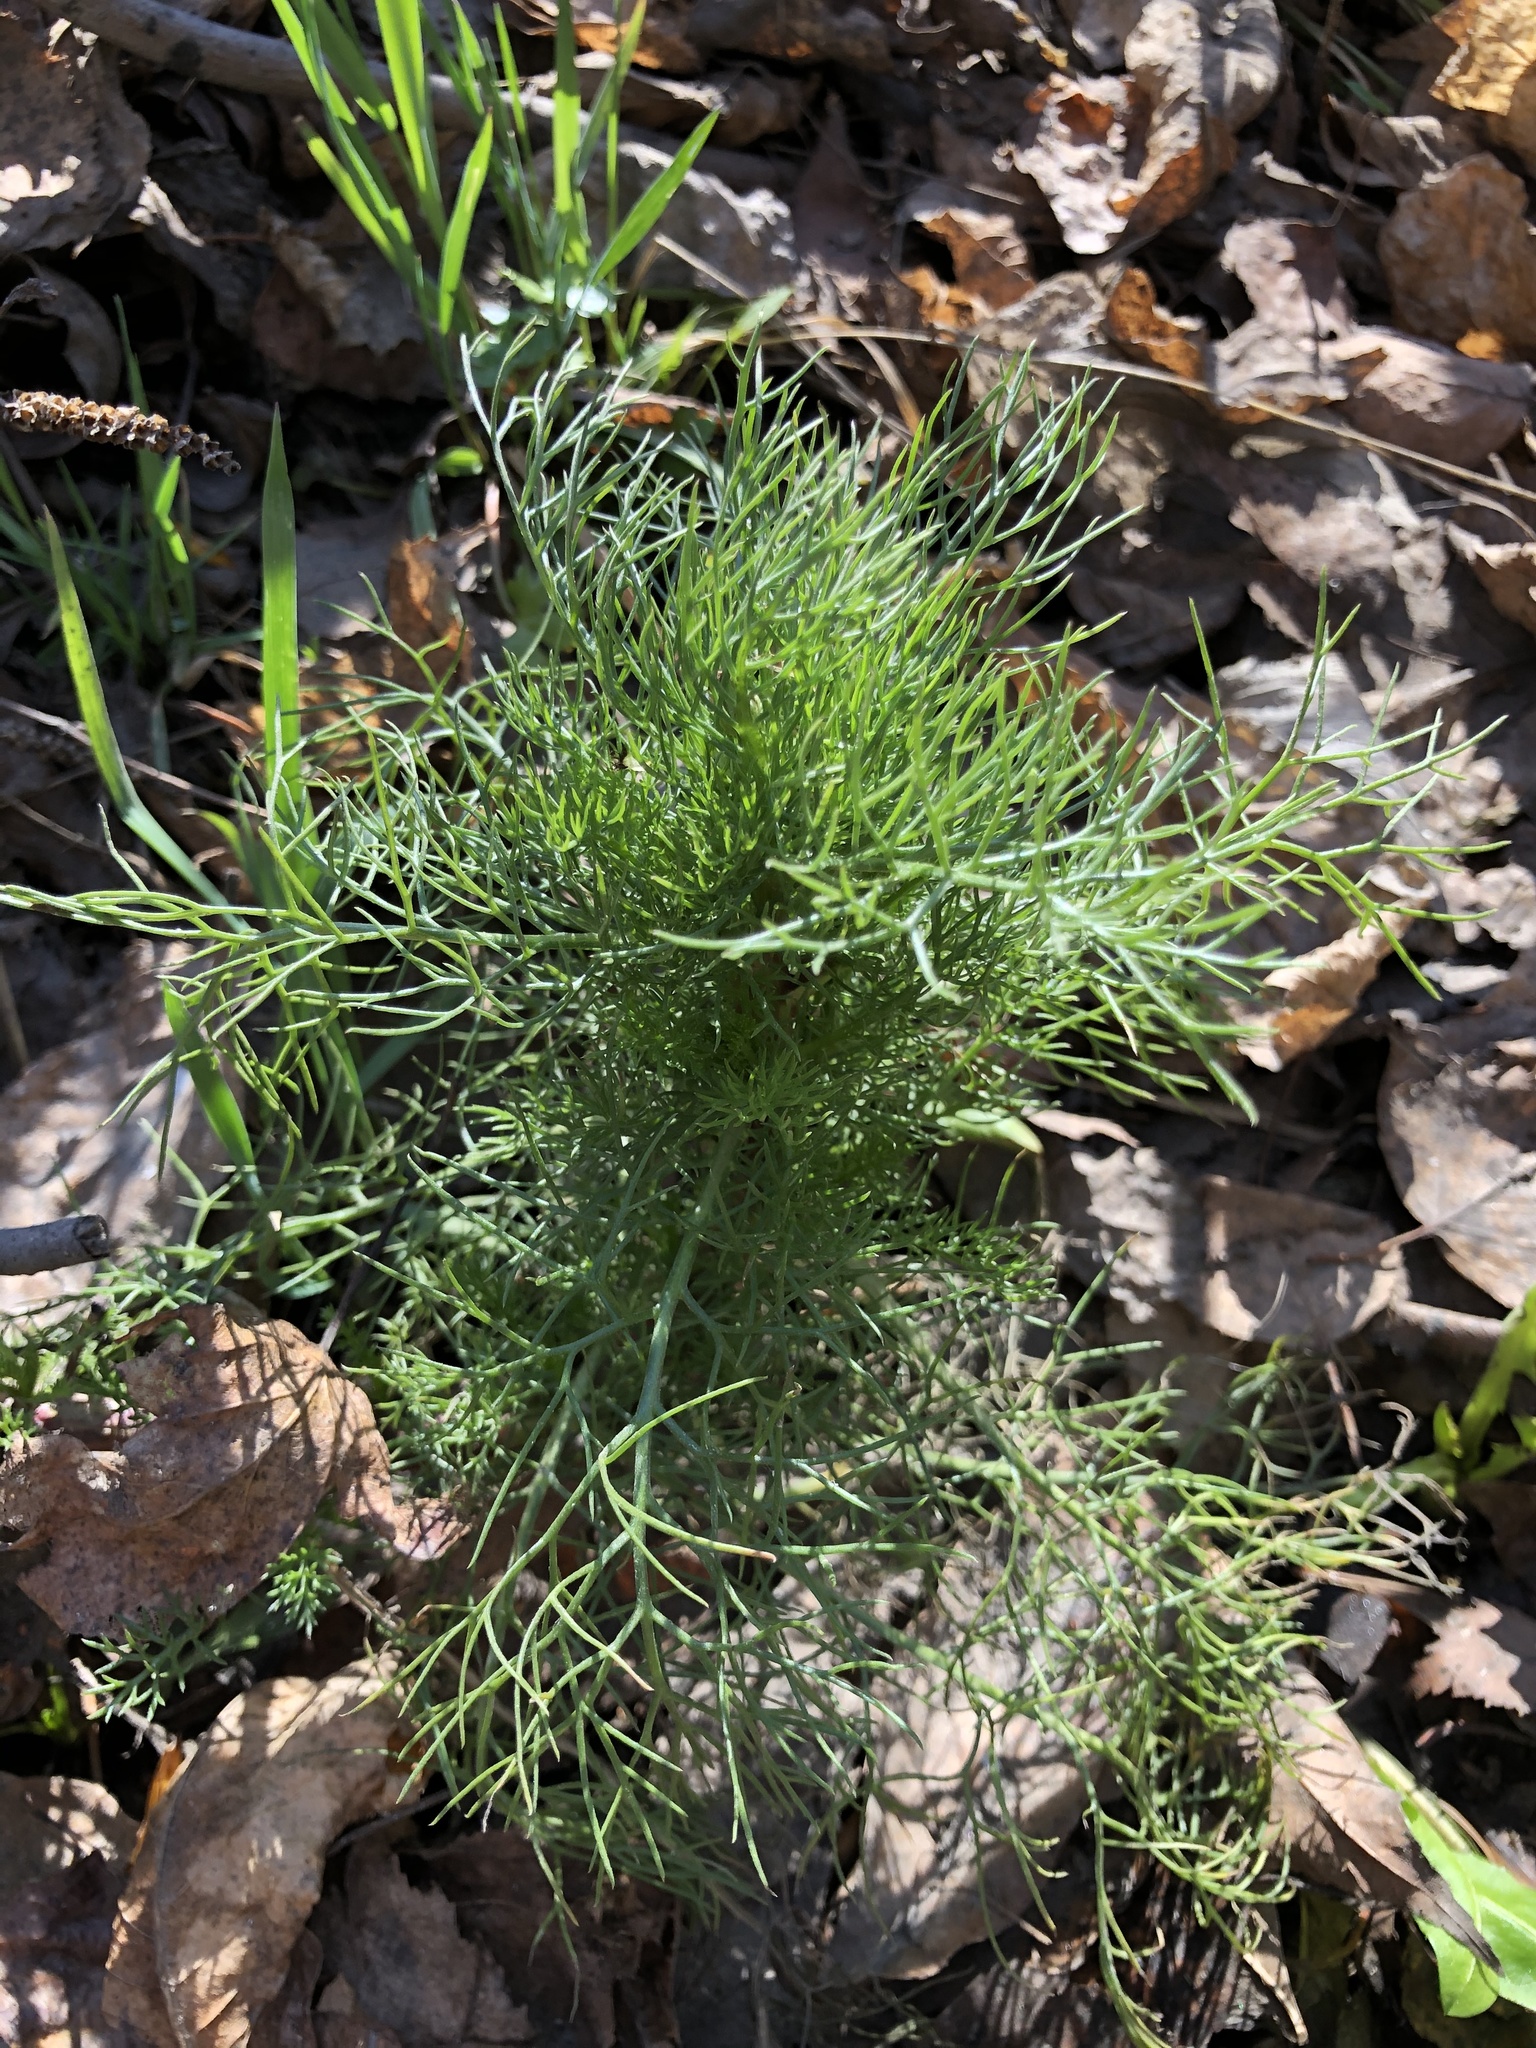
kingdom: Plantae
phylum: Tracheophyta
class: Magnoliopsida
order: Asterales
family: Asteraceae
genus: Tripleurospermum
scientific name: Tripleurospermum inodorum
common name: Scentless mayweed
